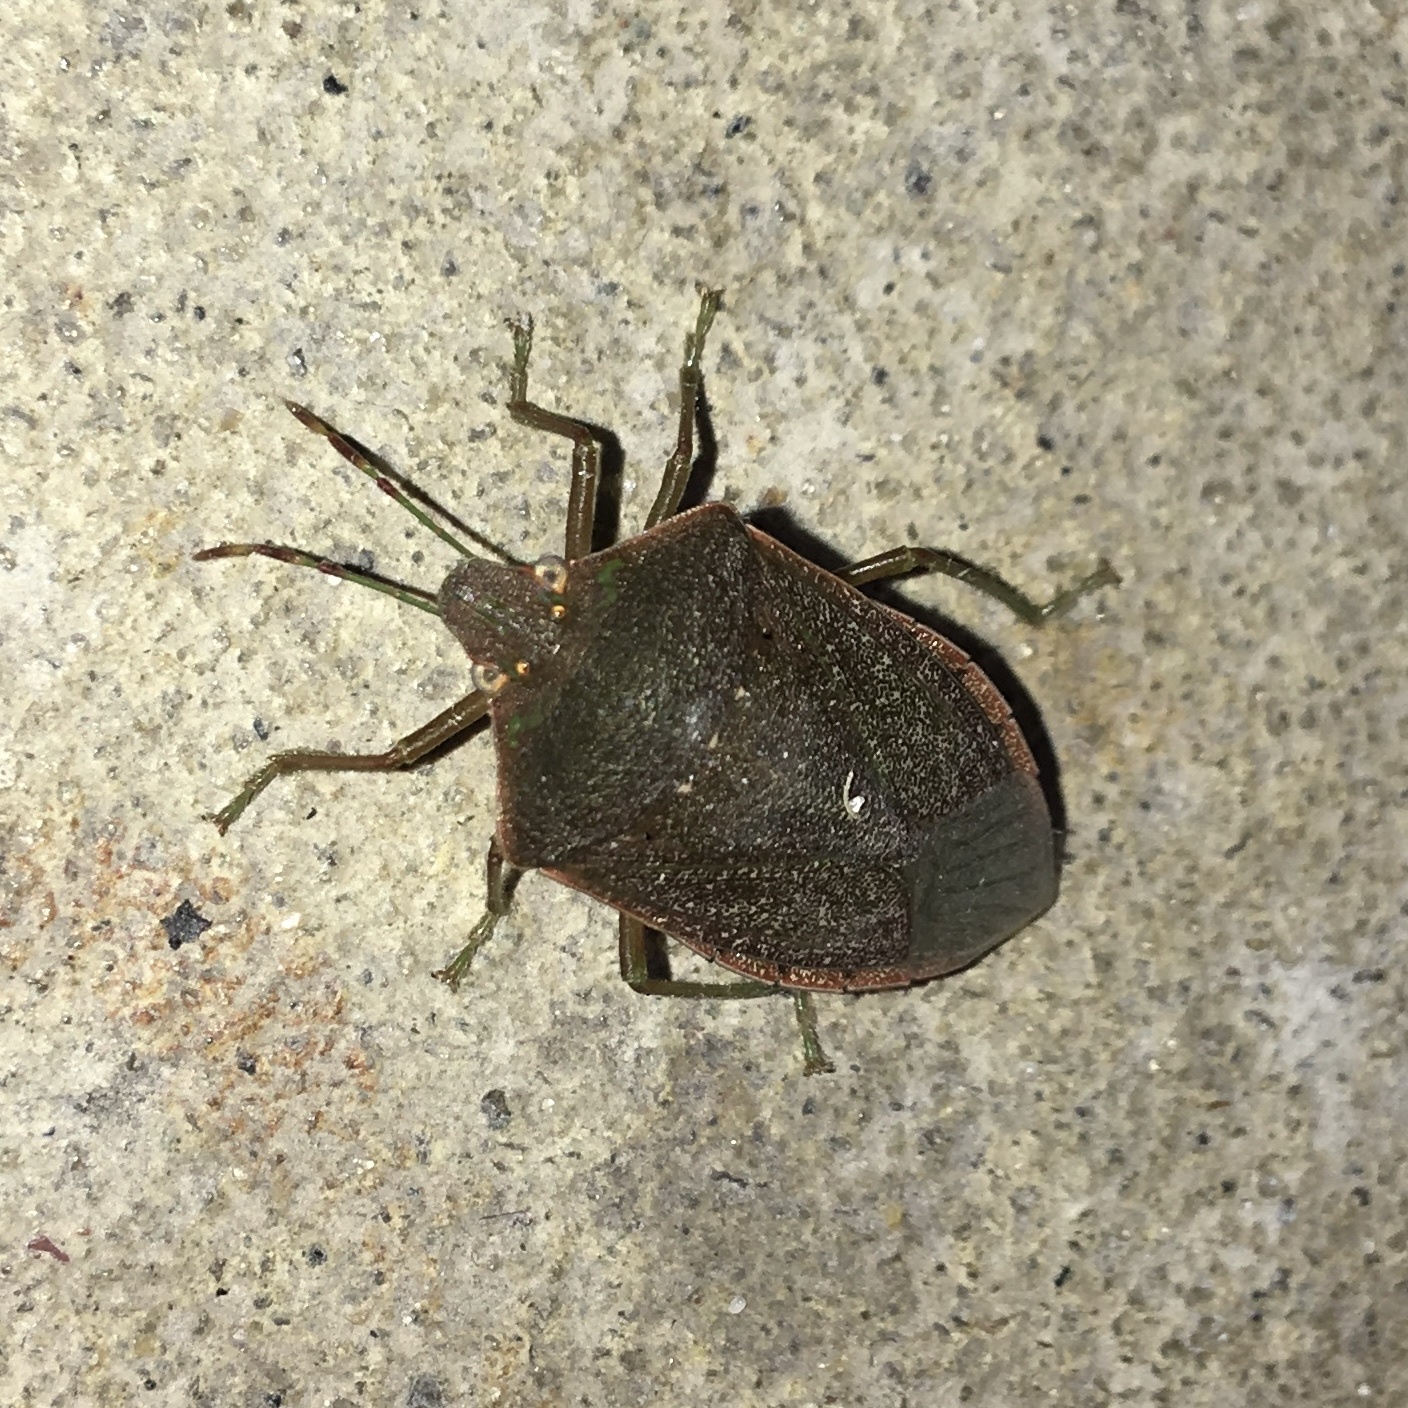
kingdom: Animalia
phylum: Arthropoda
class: Insecta
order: Hemiptera
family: Pentatomidae
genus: Nezara
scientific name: Nezara viridula
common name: Southern green stink bug
